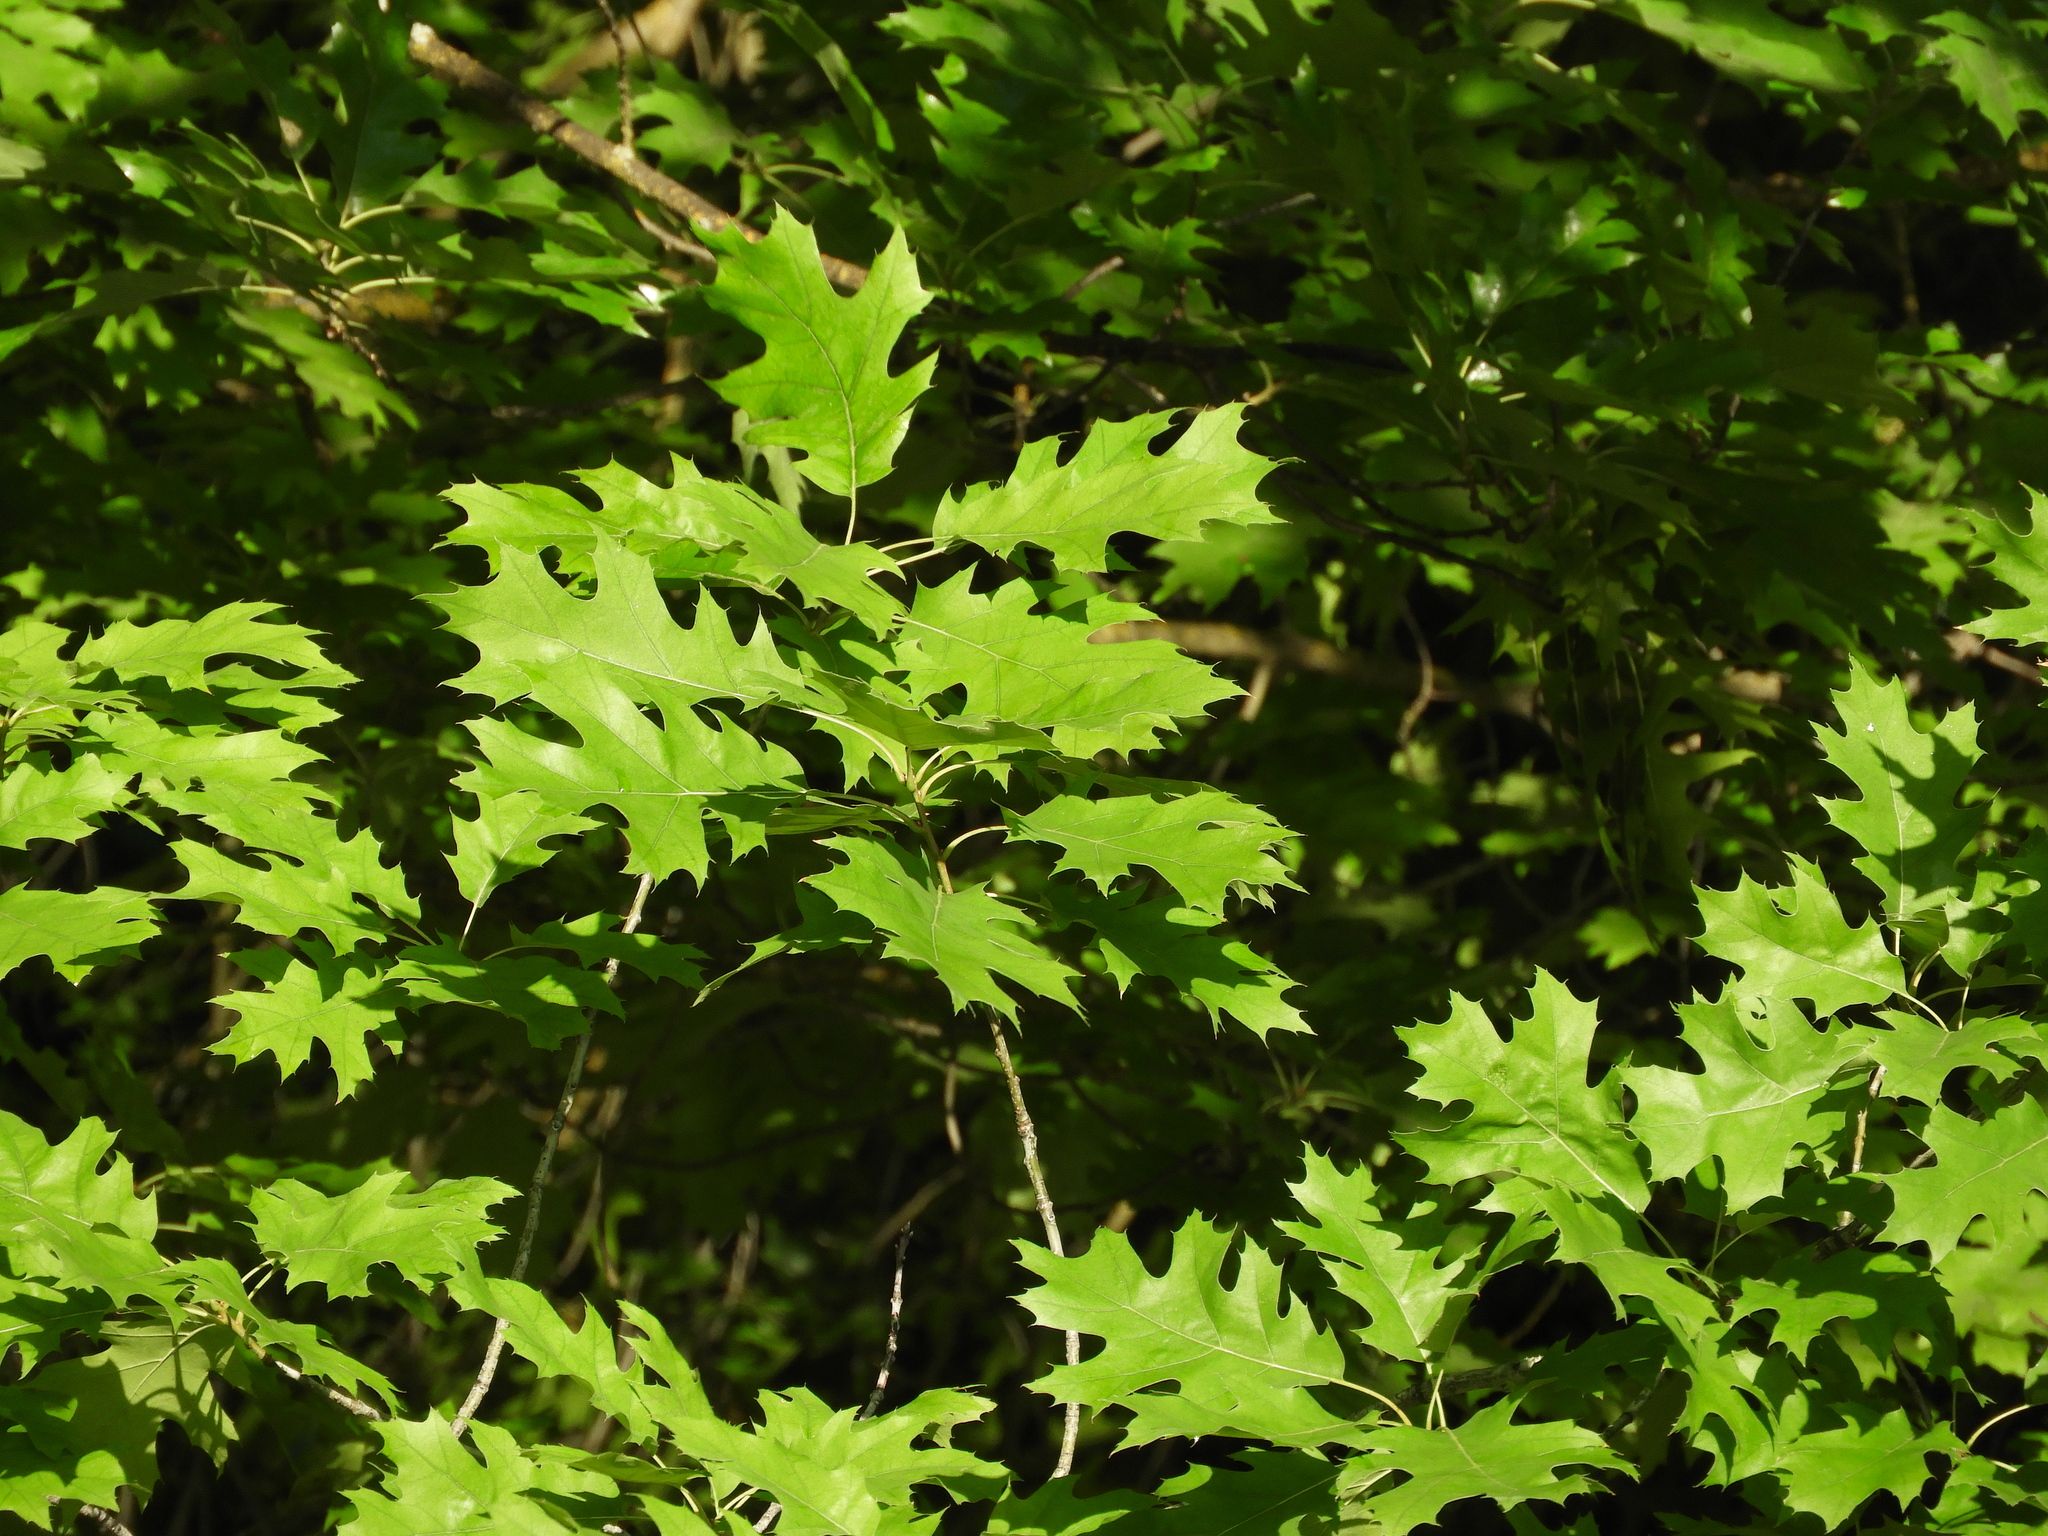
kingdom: Plantae
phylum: Tracheophyta
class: Magnoliopsida
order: Fagales
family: Fagaceae
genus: Quercus
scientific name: Quercus rubra
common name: Red oak
